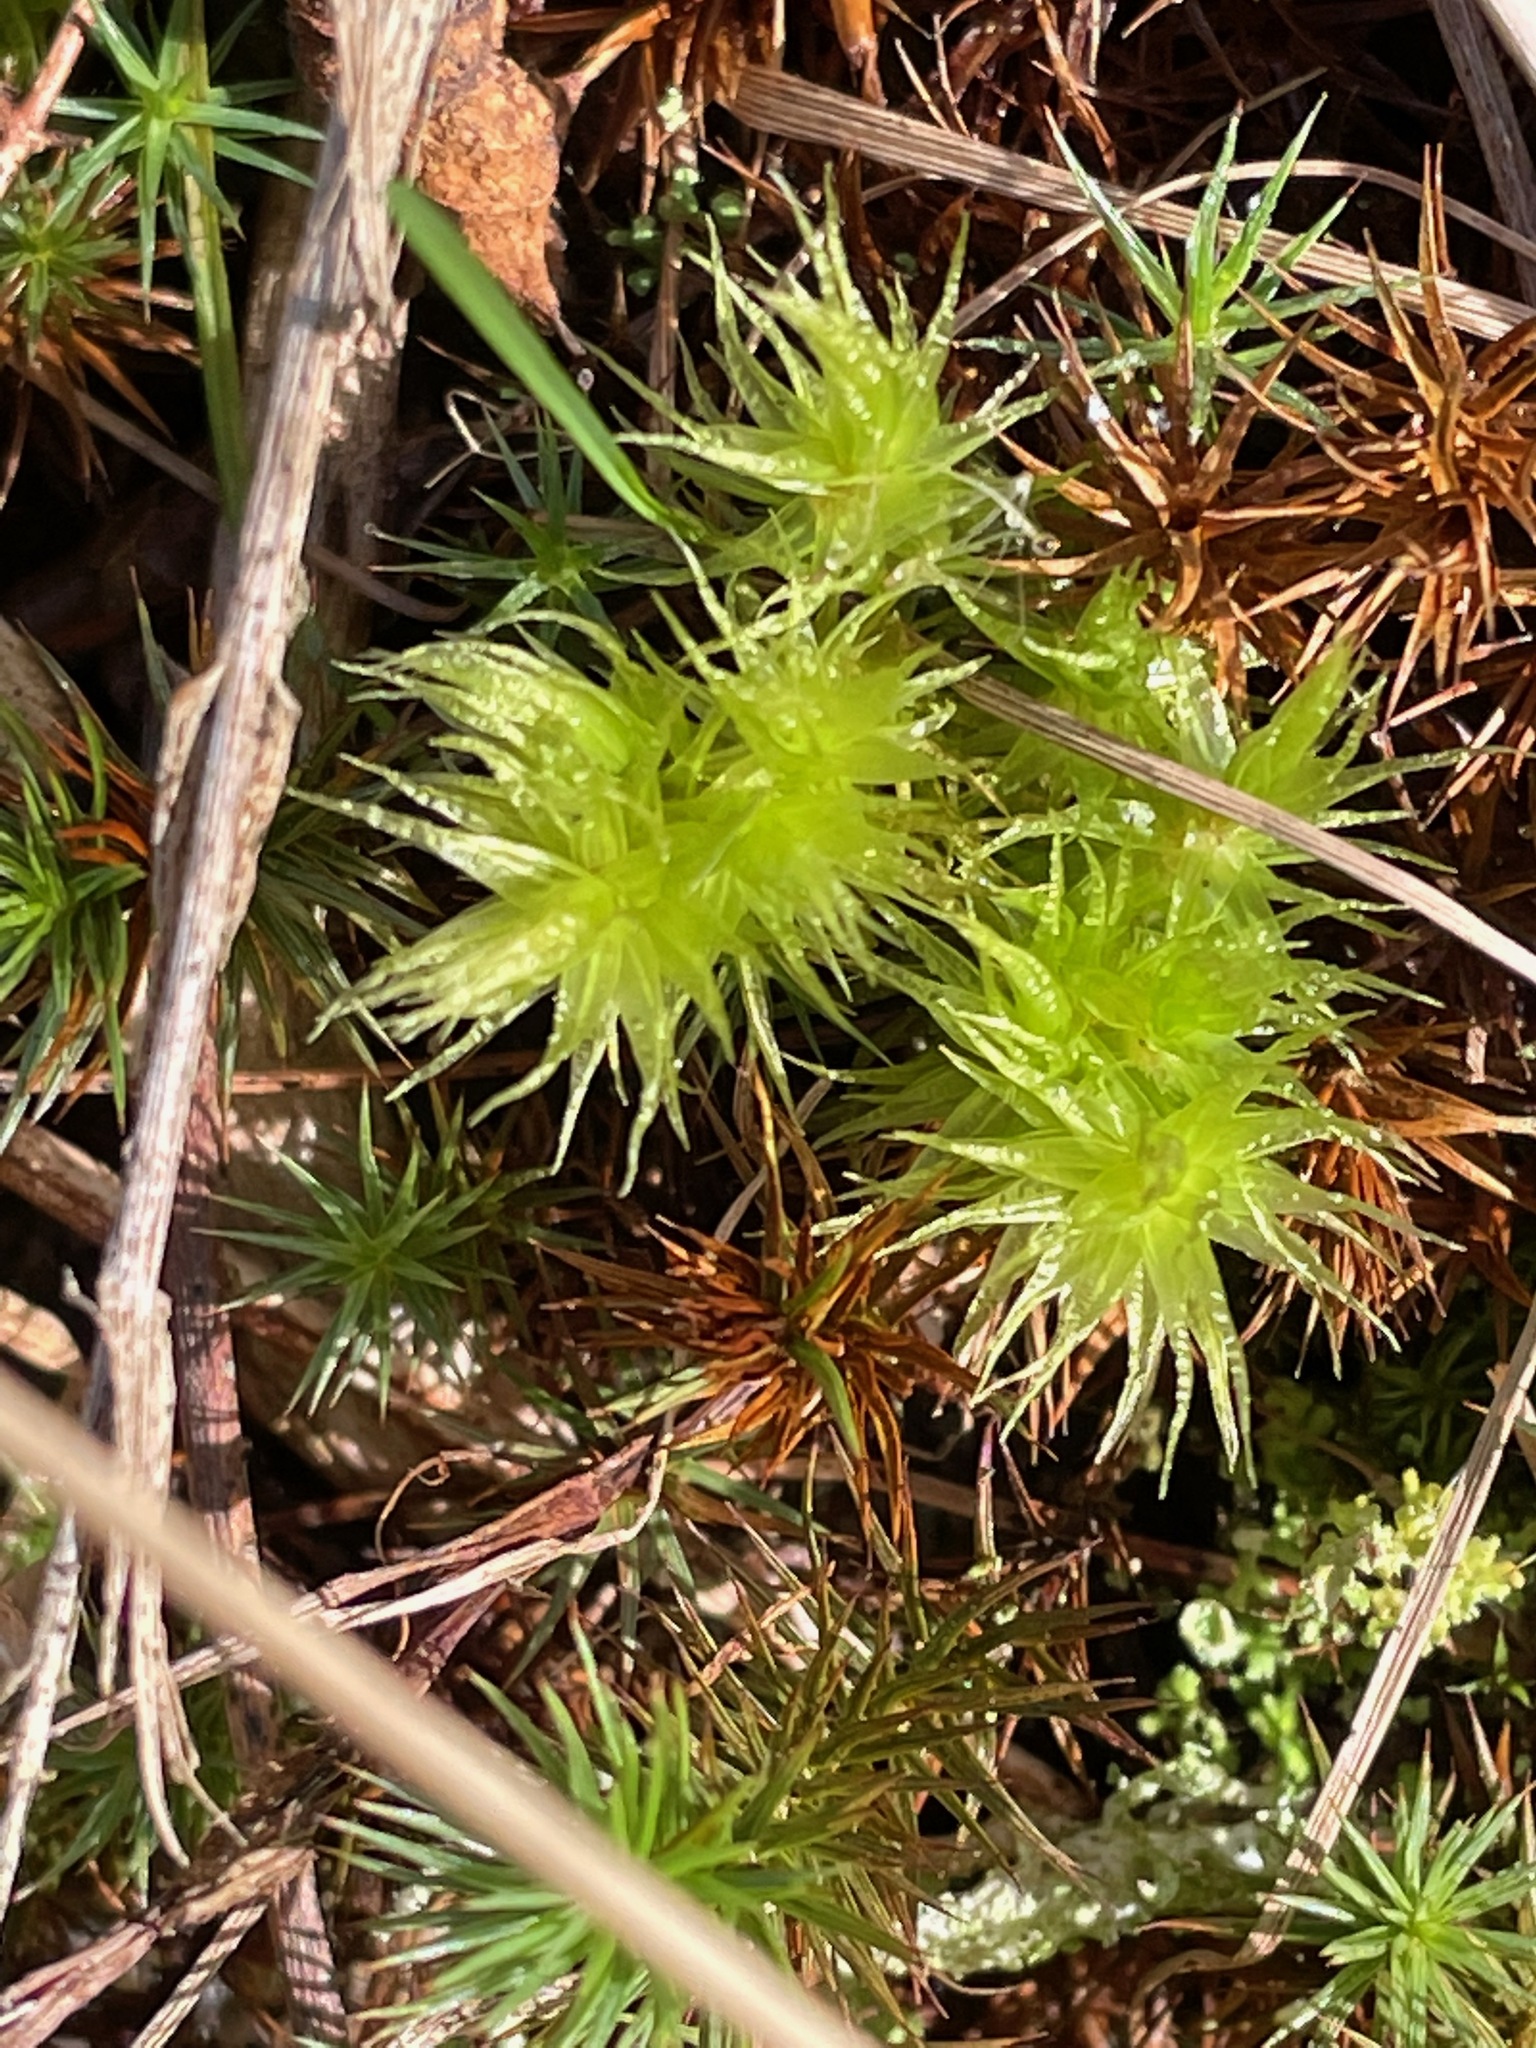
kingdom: Plantae
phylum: Bryophyta
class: Bryopsida
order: Dicranales
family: Dicranaceae
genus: Dicranum
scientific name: Dicranum polysetum
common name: Rugose fork-moss
